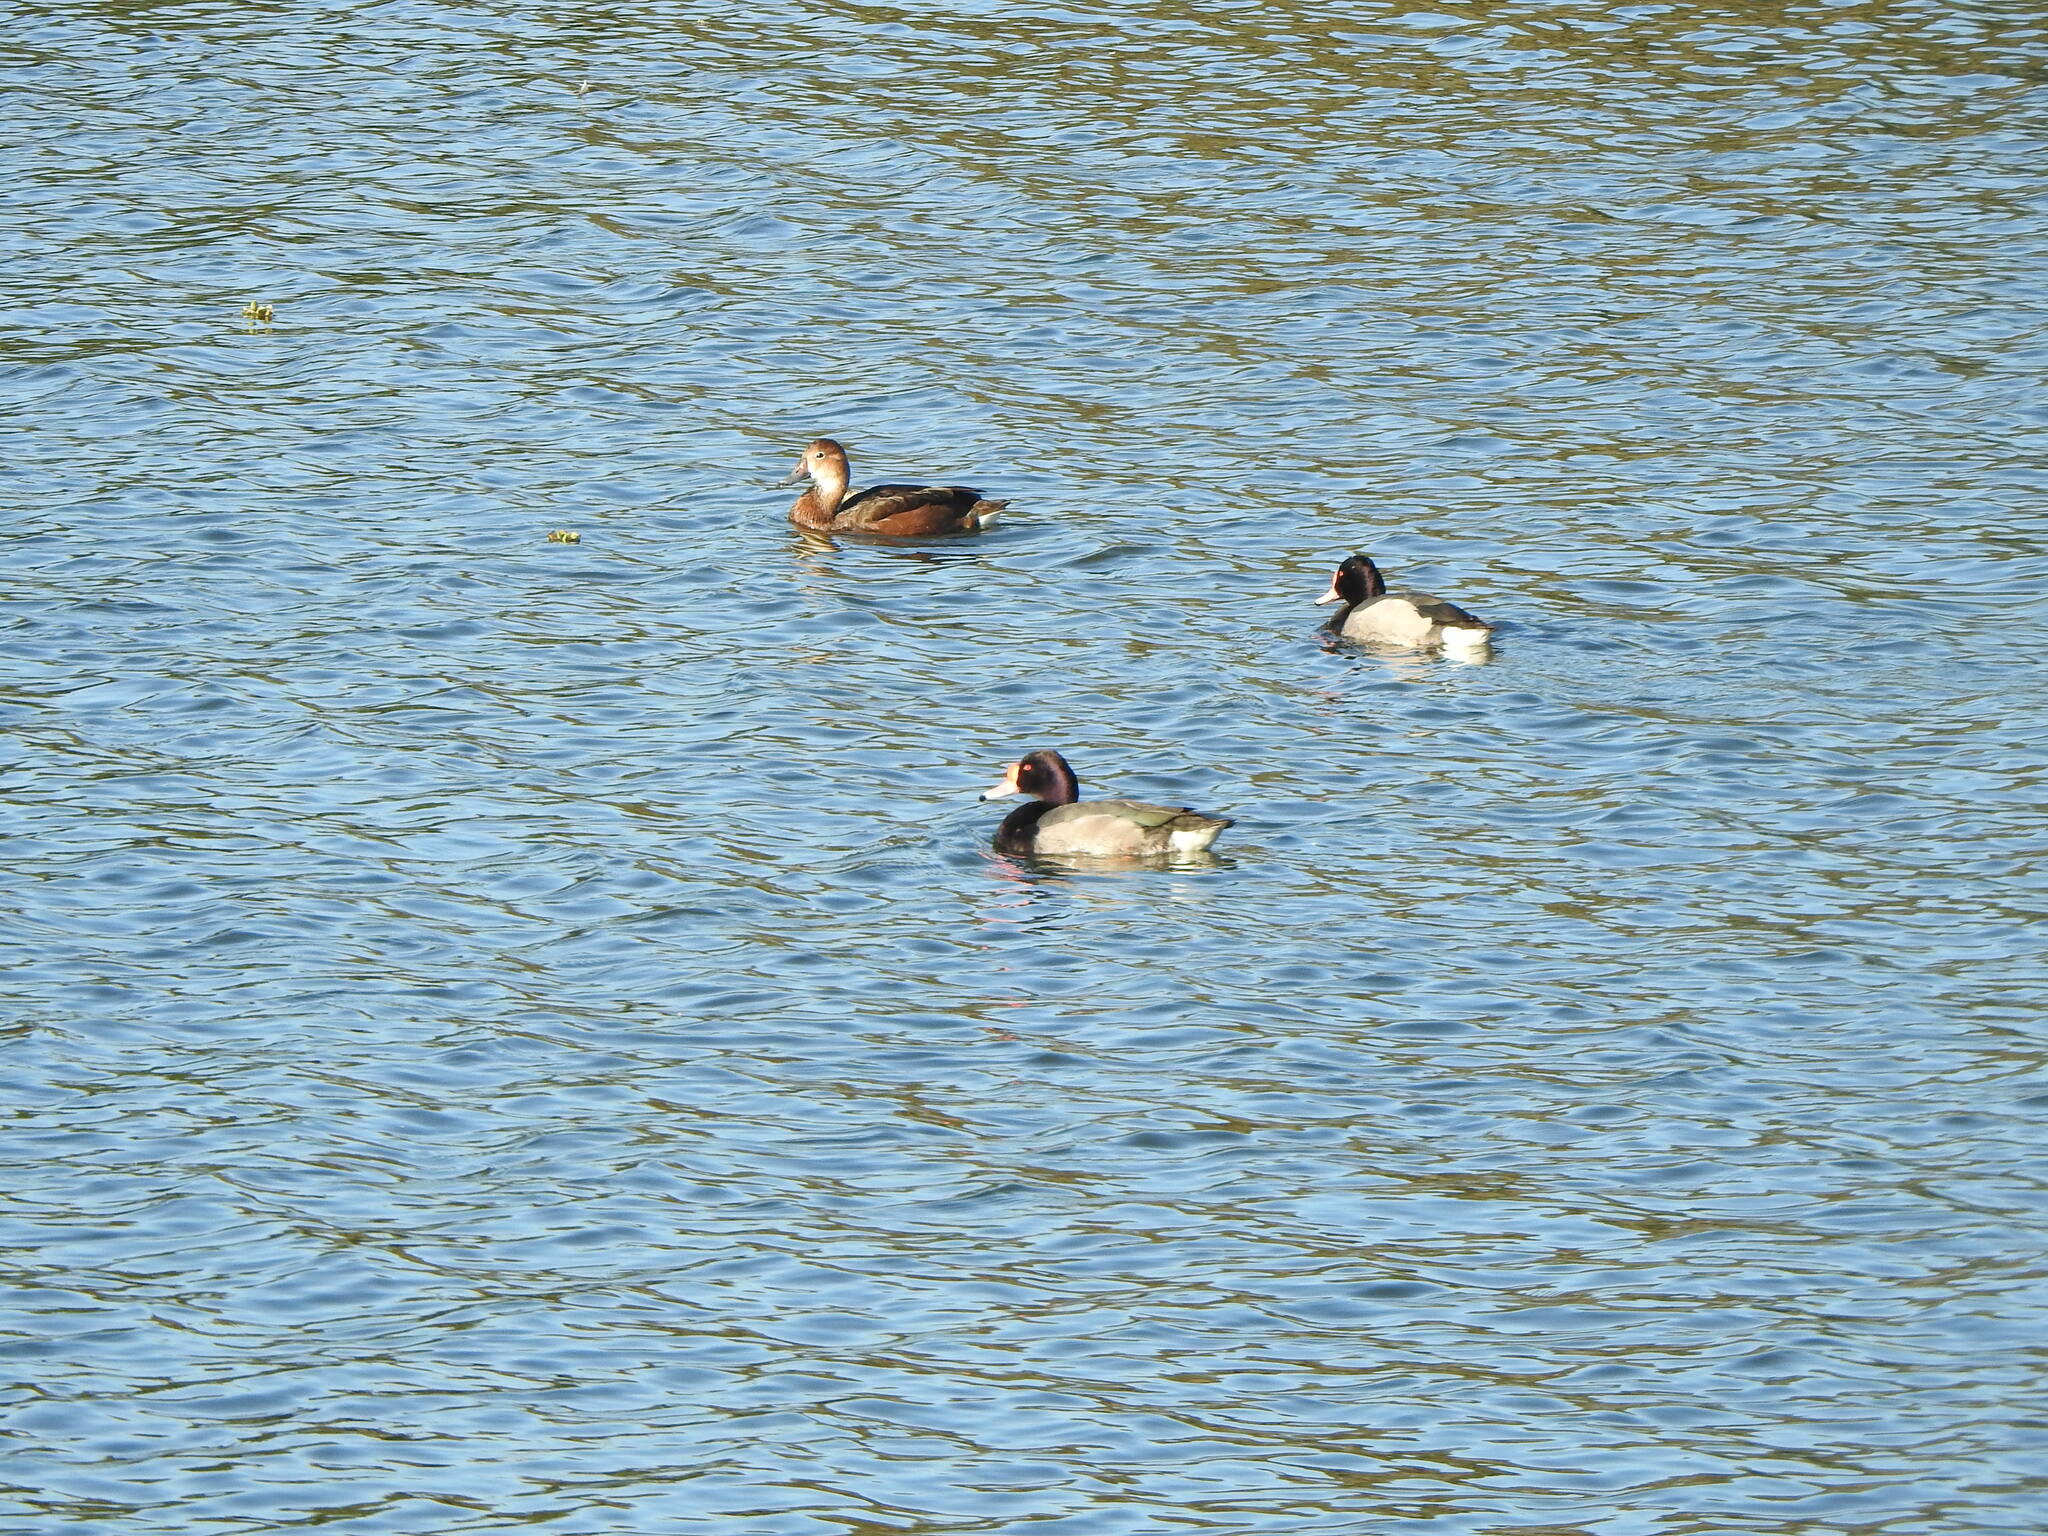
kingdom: Animalia
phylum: Chordata
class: Aves
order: Anseriformes
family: Anatidae
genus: Netta
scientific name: Netta peposaca
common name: Rosy-billed pochard
